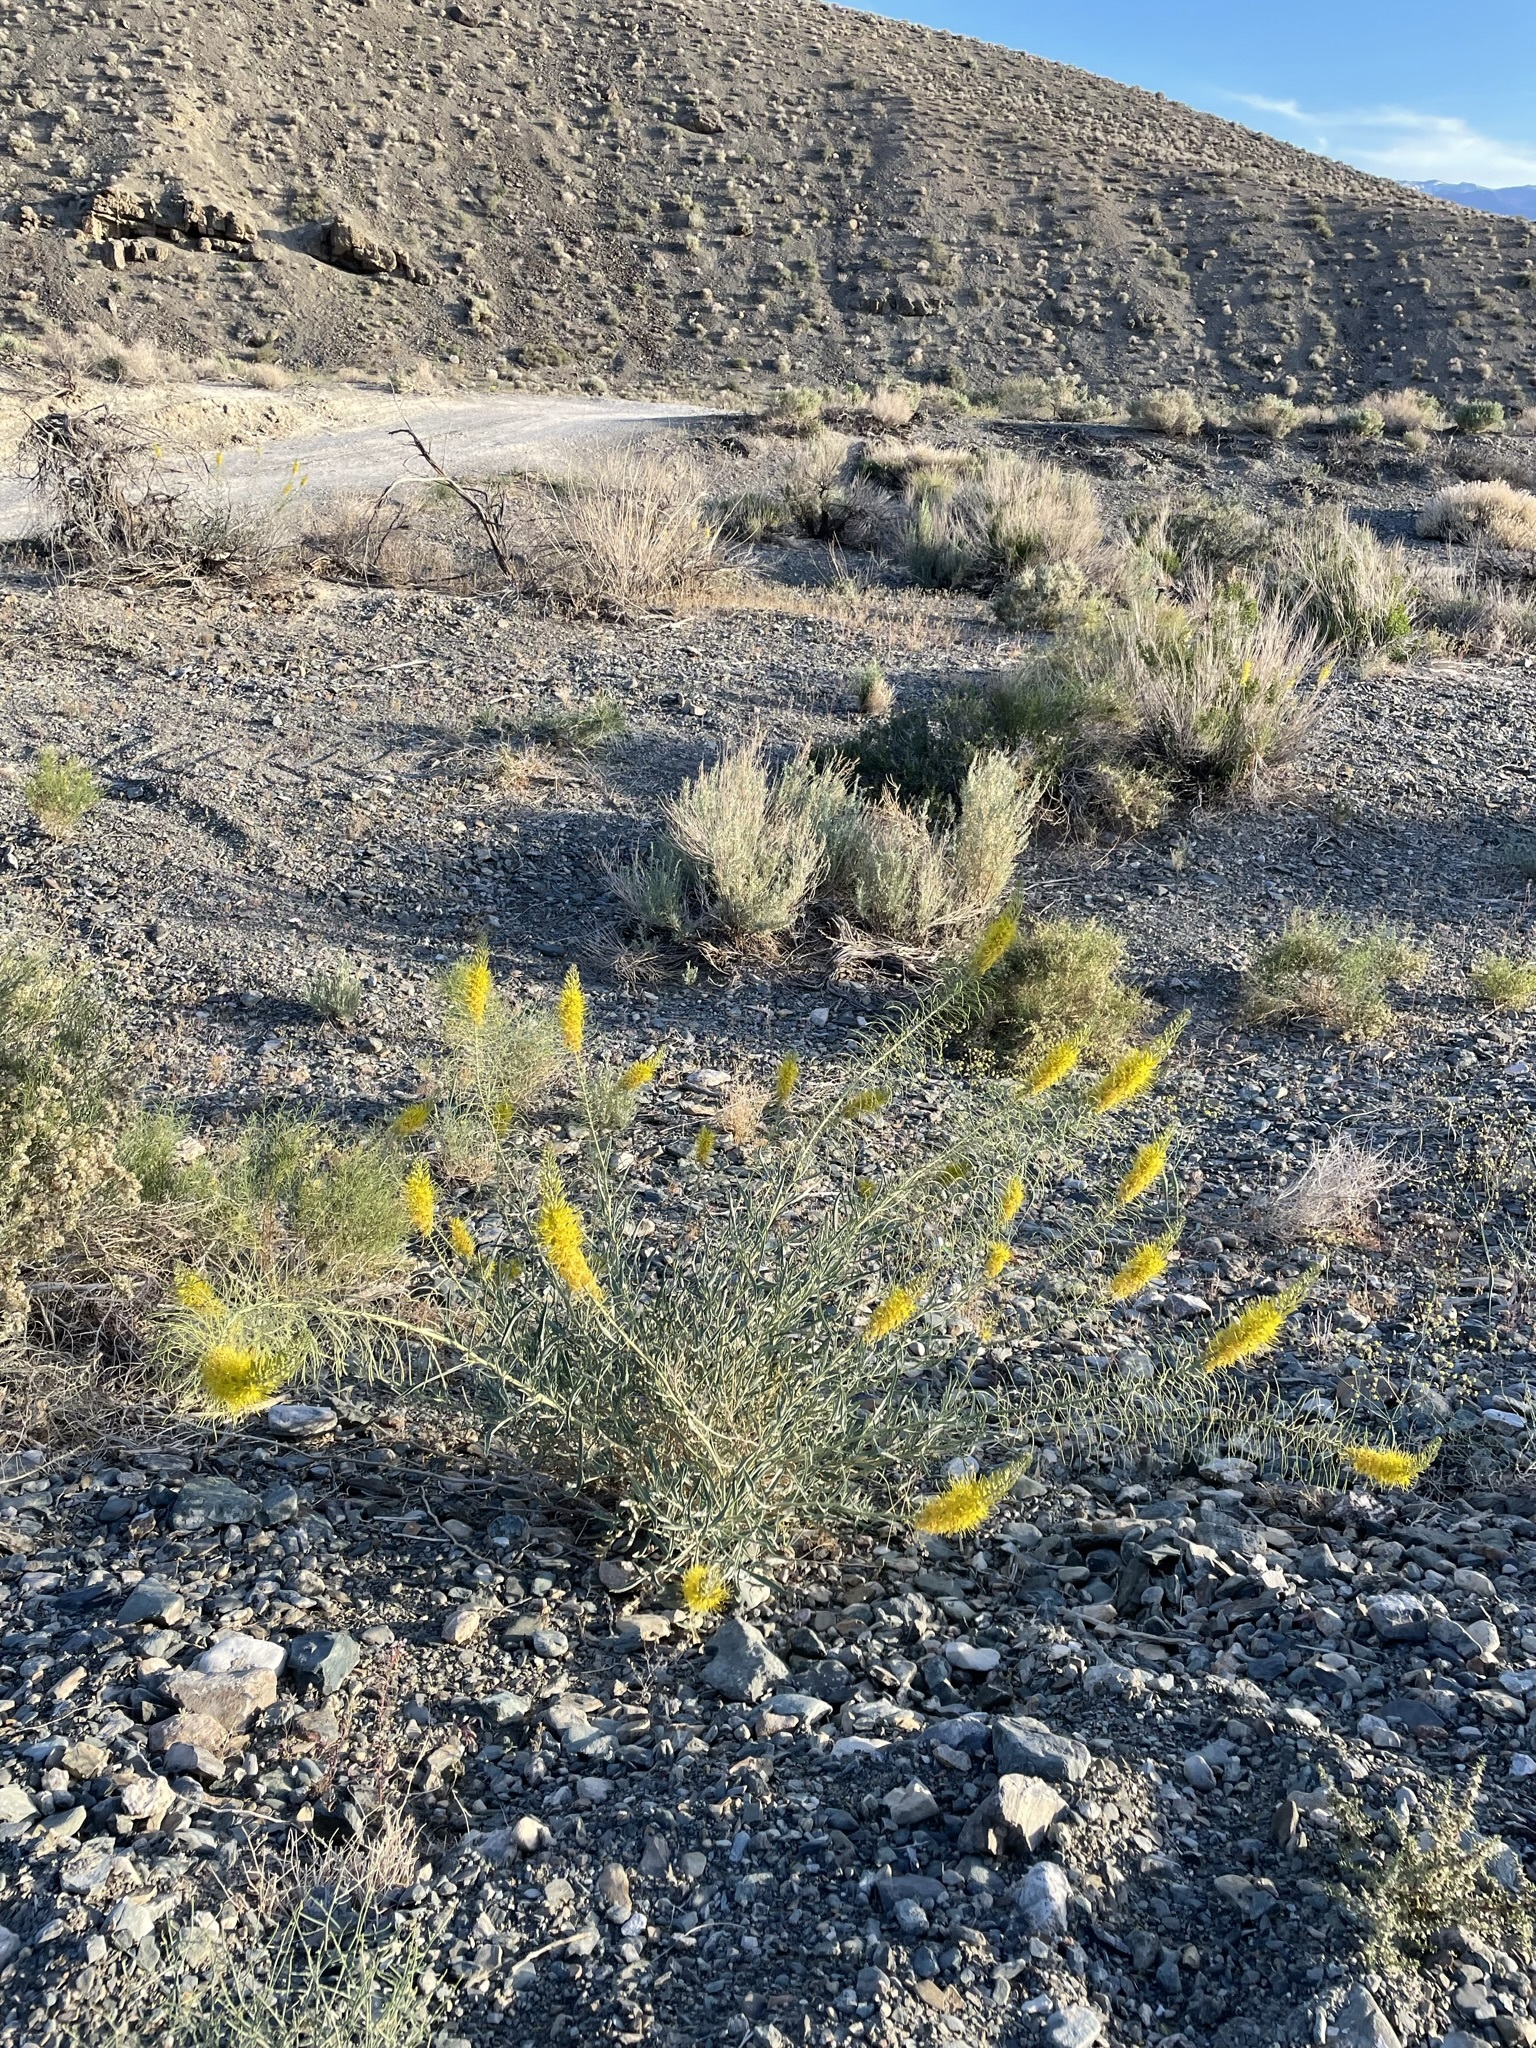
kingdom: Plantae
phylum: Tracheophyta
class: Magnoliopsida
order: Brassicales
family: Brassicaceae
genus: Stanleya
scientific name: Stanleya pinnata
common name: Prince's-plume
